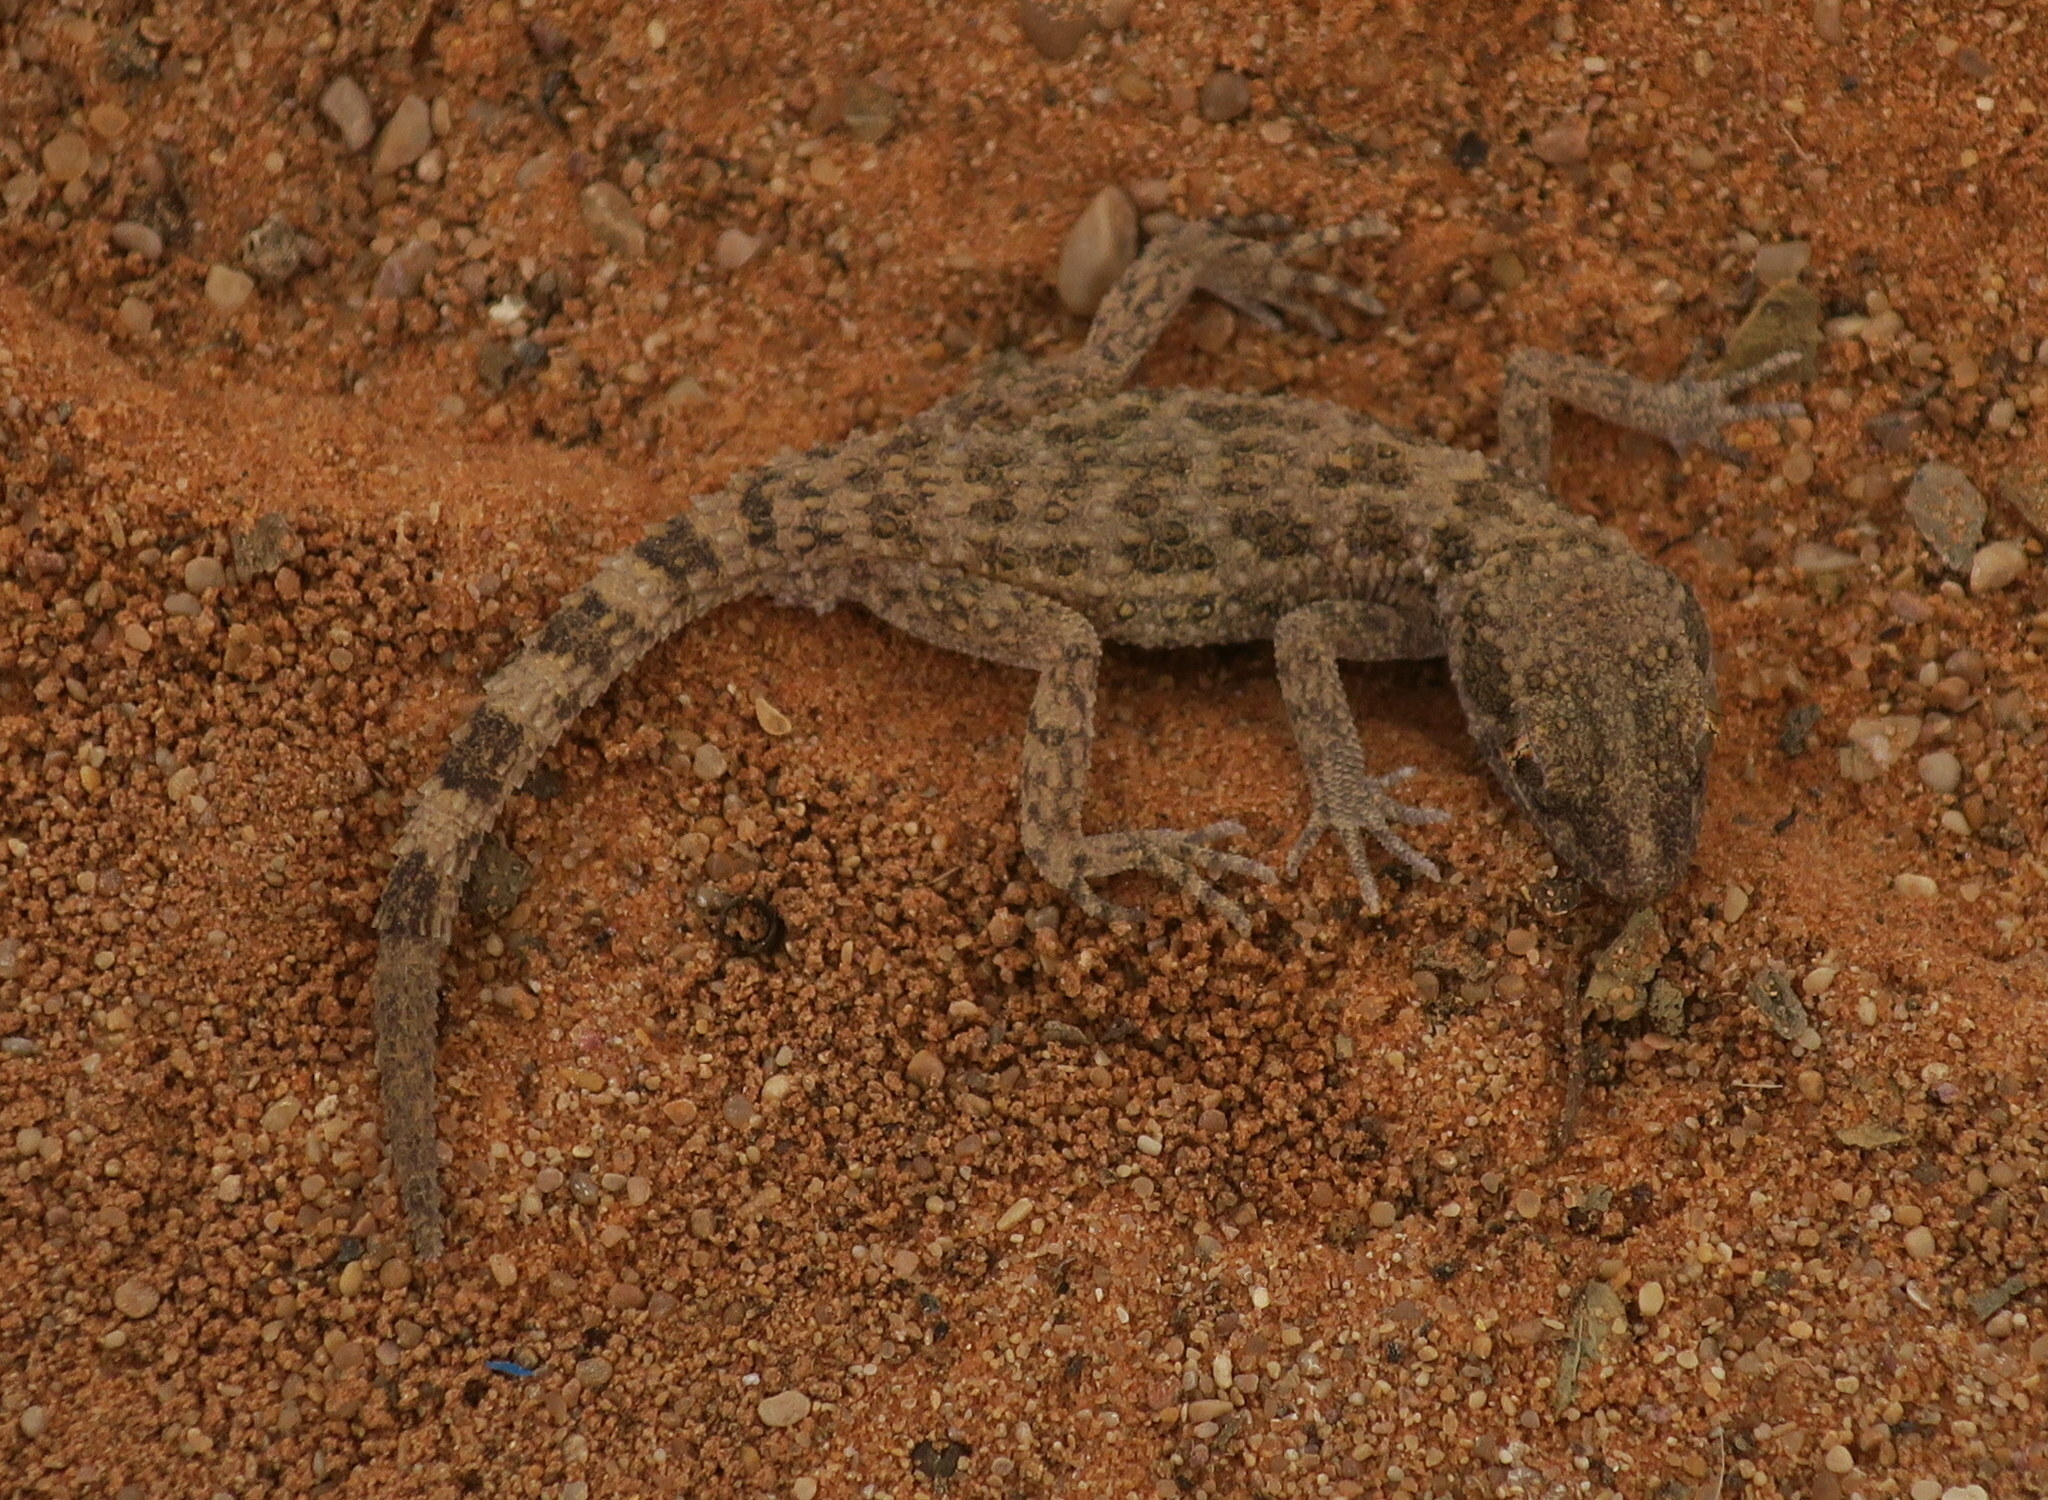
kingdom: Animalia
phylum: Chordata
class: Squamata
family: Gekkonidae
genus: Bunopus
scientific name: Bunopus tuberculatus
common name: Southern tuberculated gecko
